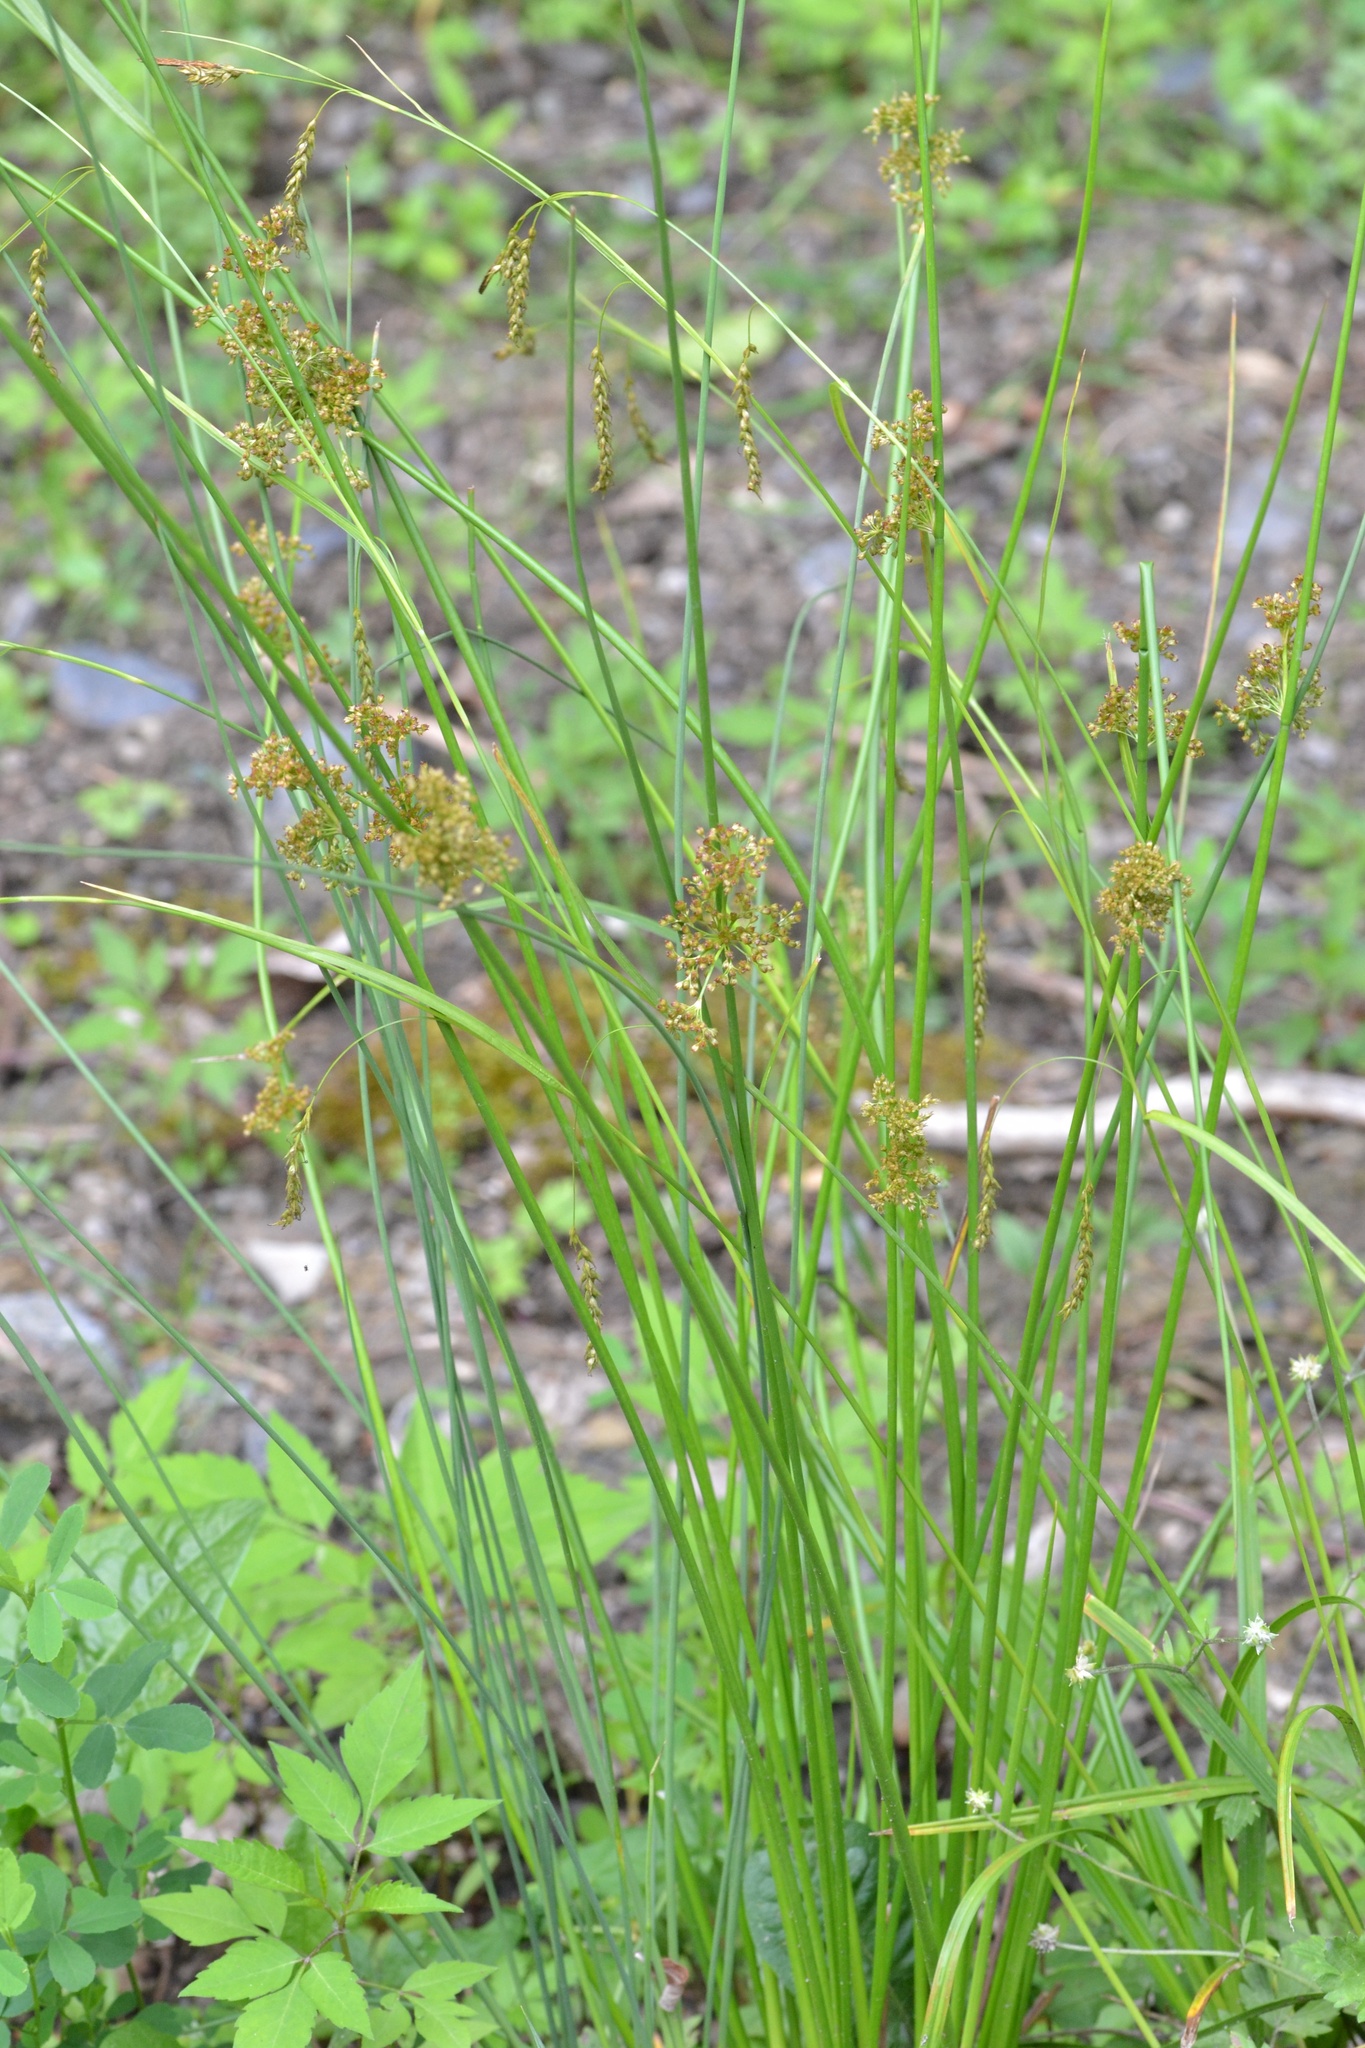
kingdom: Plantae
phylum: Tracheophyta
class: Liliopsida
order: Poales
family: Juncaceae
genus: Juncus
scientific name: Juncus effusus
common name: Soft rush
